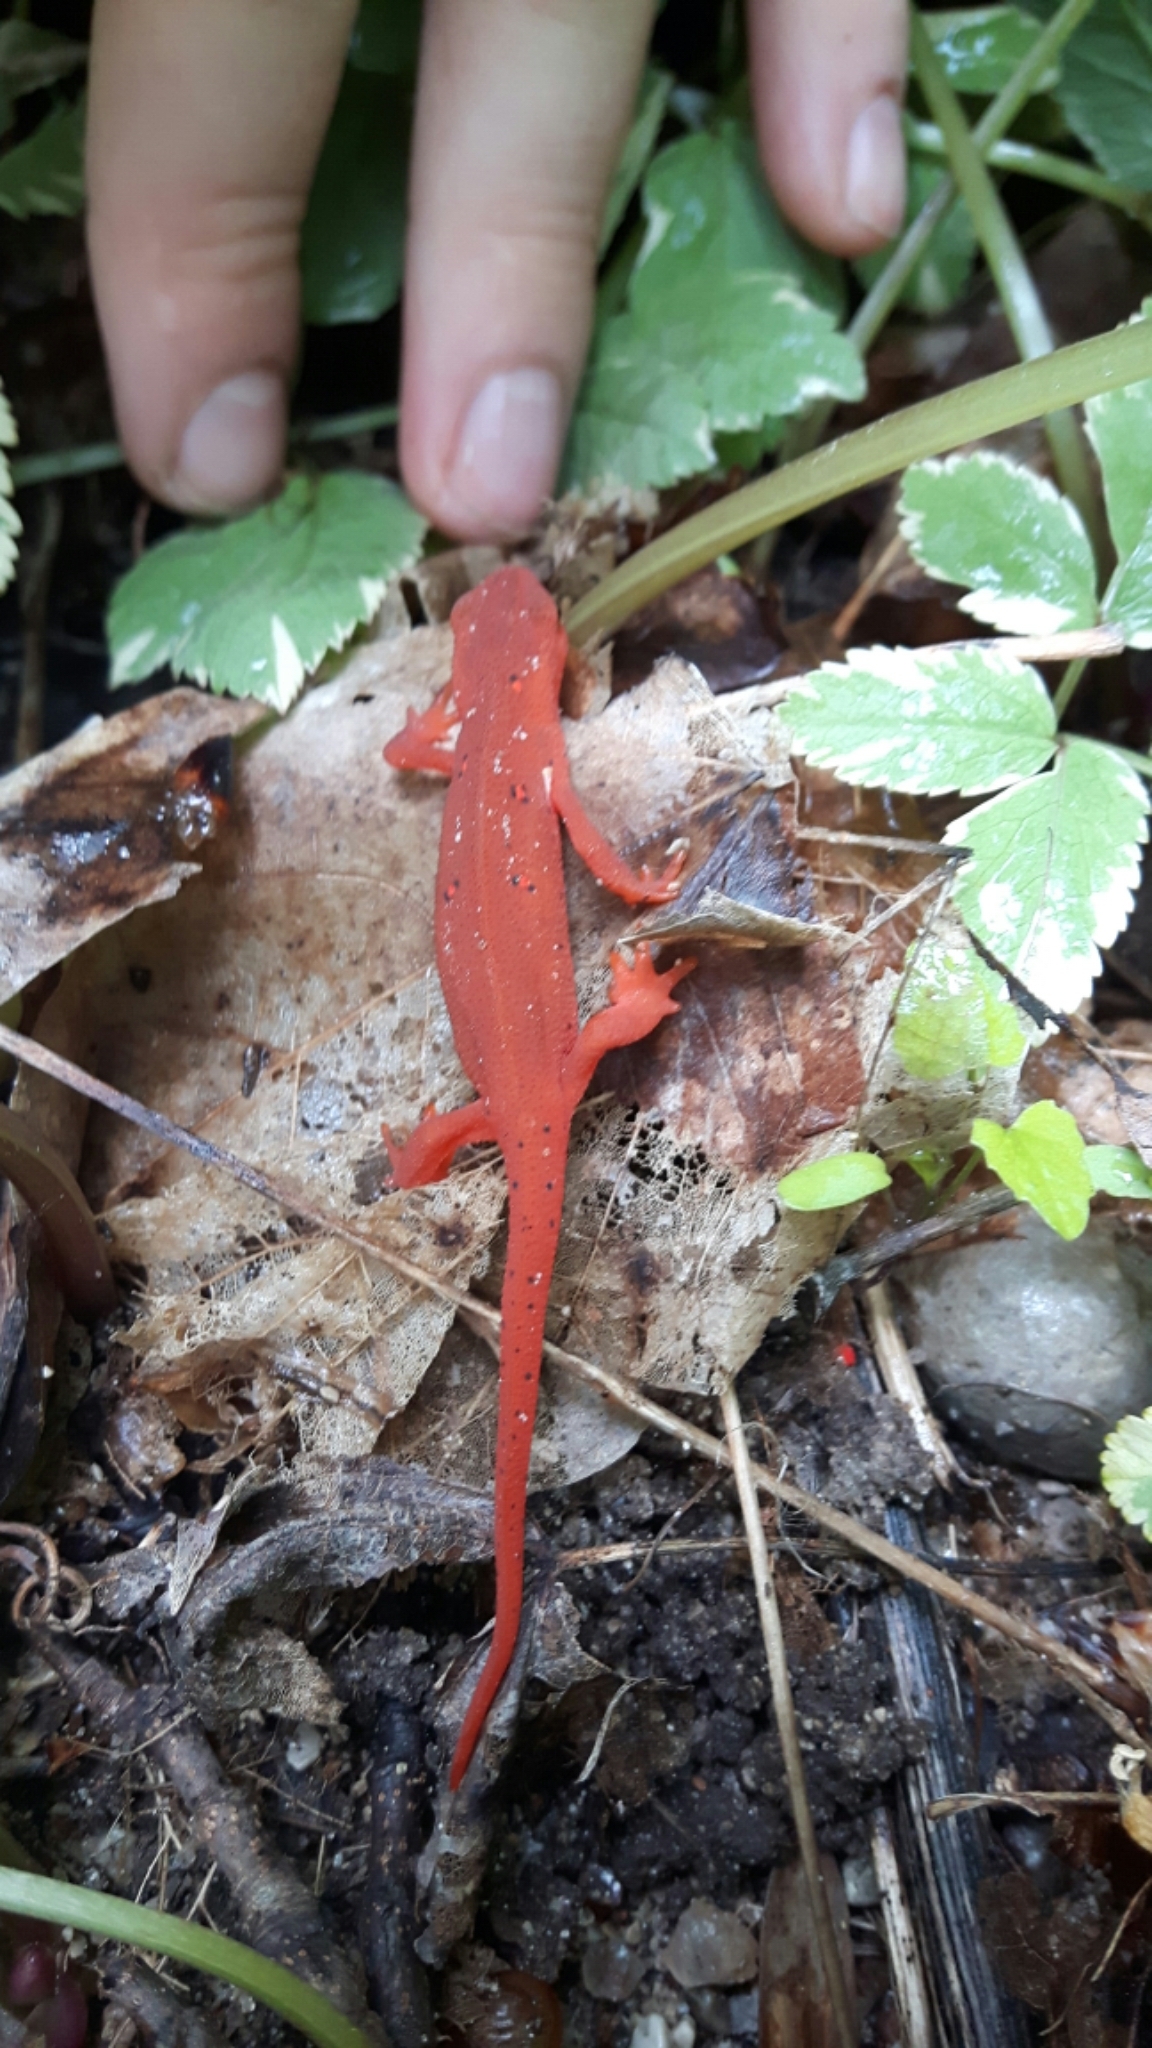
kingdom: Animalia
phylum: Chordata
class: Amphibia
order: Caudata
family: Salamandridae
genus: Notophthalmus
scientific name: Notophthalmus viridescens
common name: Eastern newt
